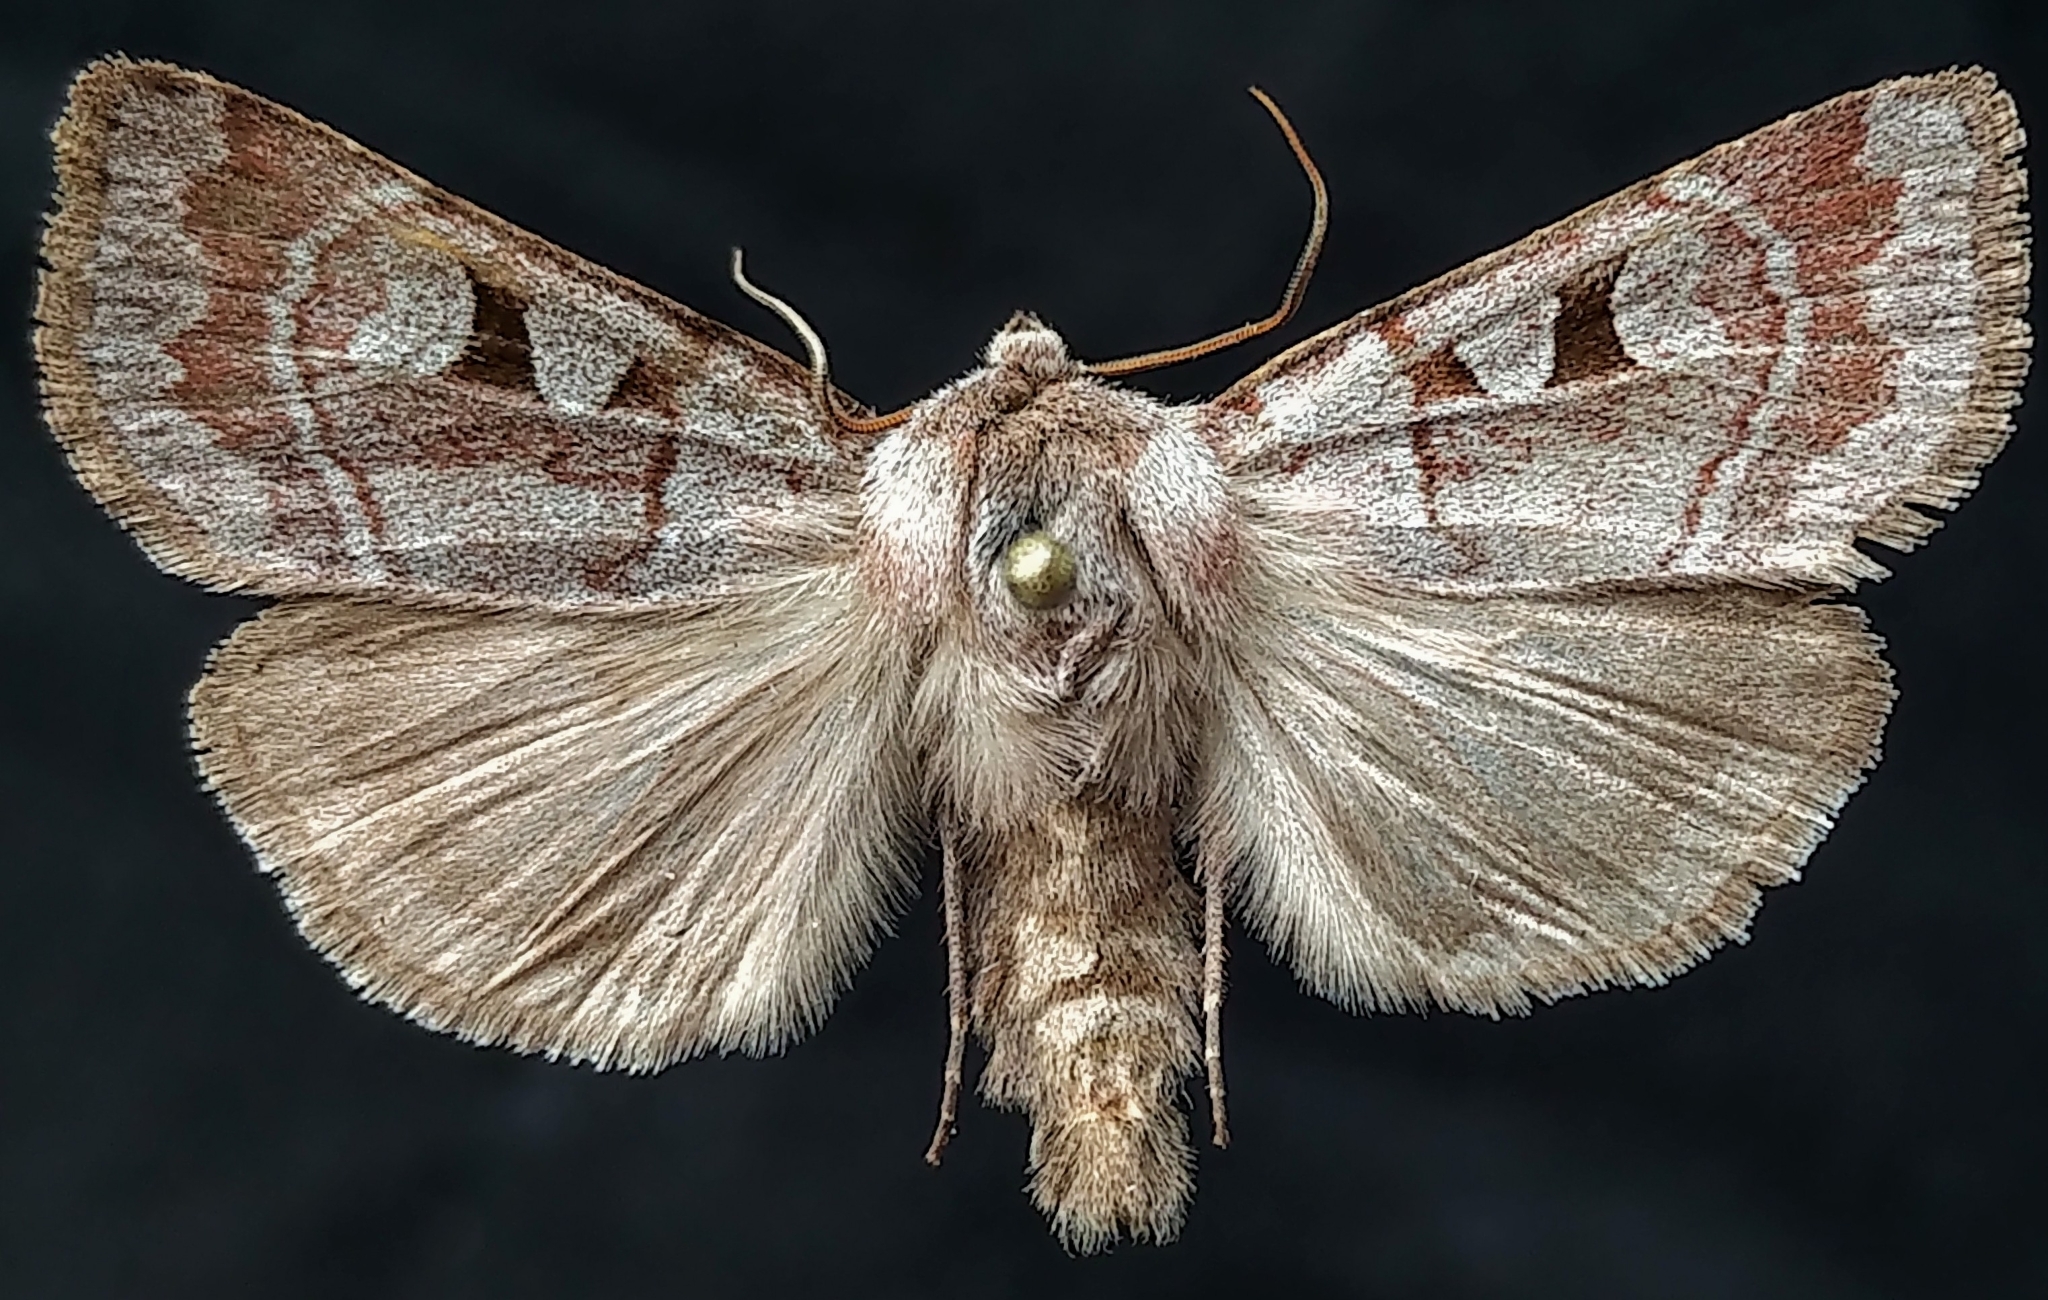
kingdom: Animalia
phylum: Arthropoda
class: Insecta
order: Lepidoptera
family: Noctuidae
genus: Feltia
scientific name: Feltia mollis
